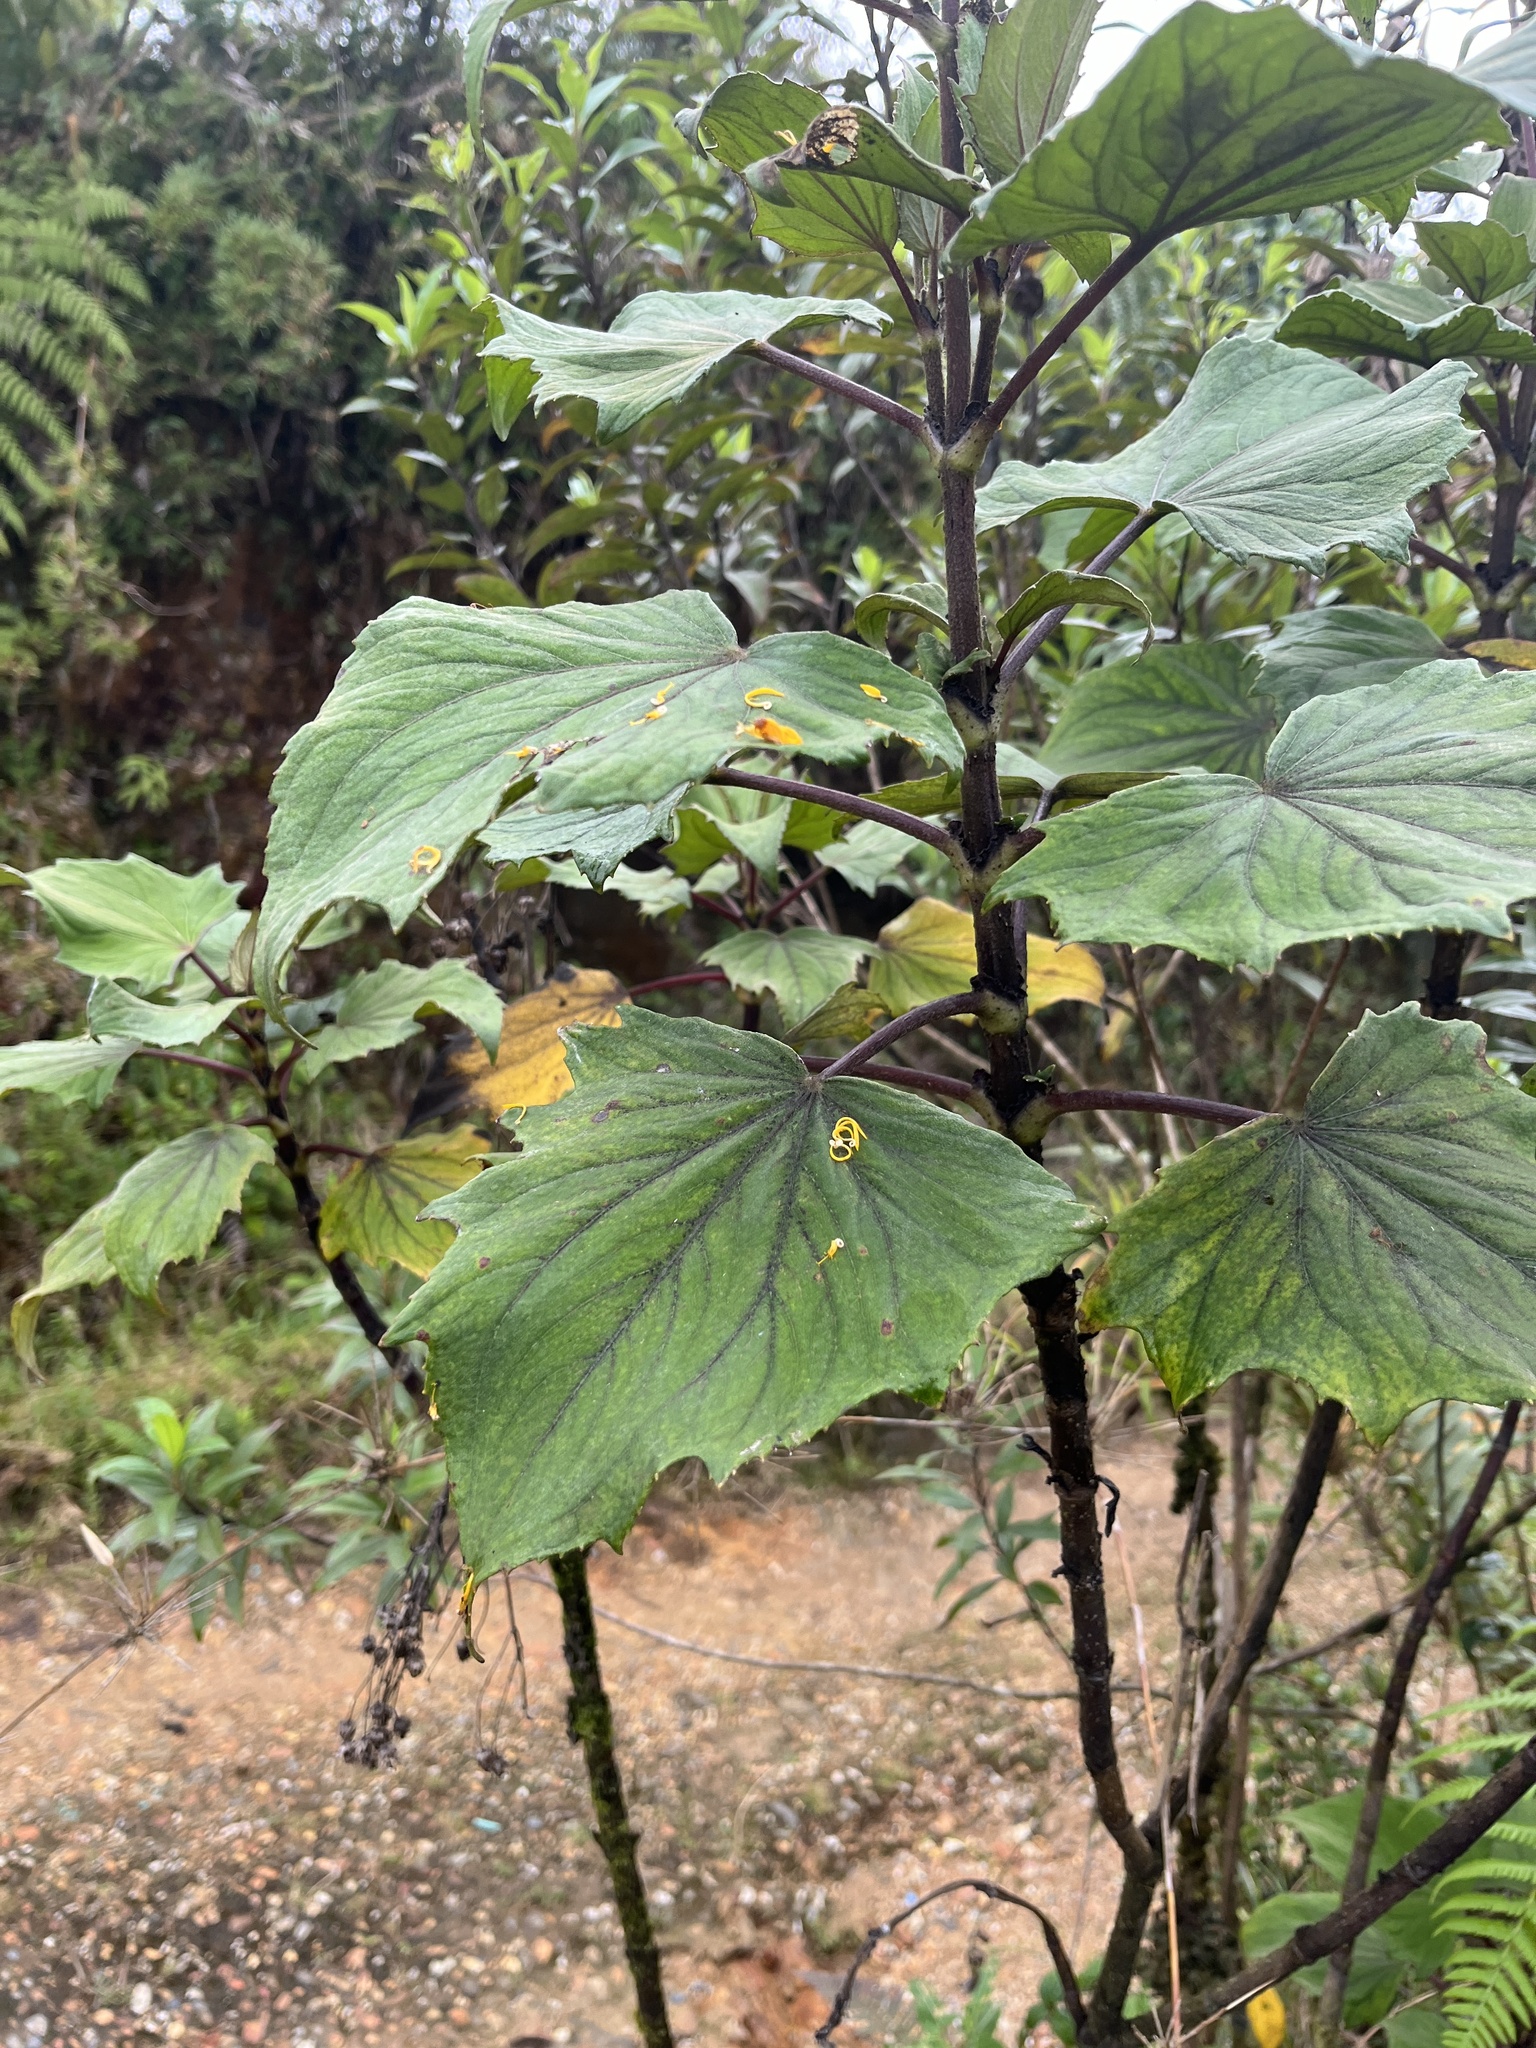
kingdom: Plantae
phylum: Tracheophyta
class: Magnoliopsida
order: Asterales
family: Asteraceae
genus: Erato
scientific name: Erato vulcanica
